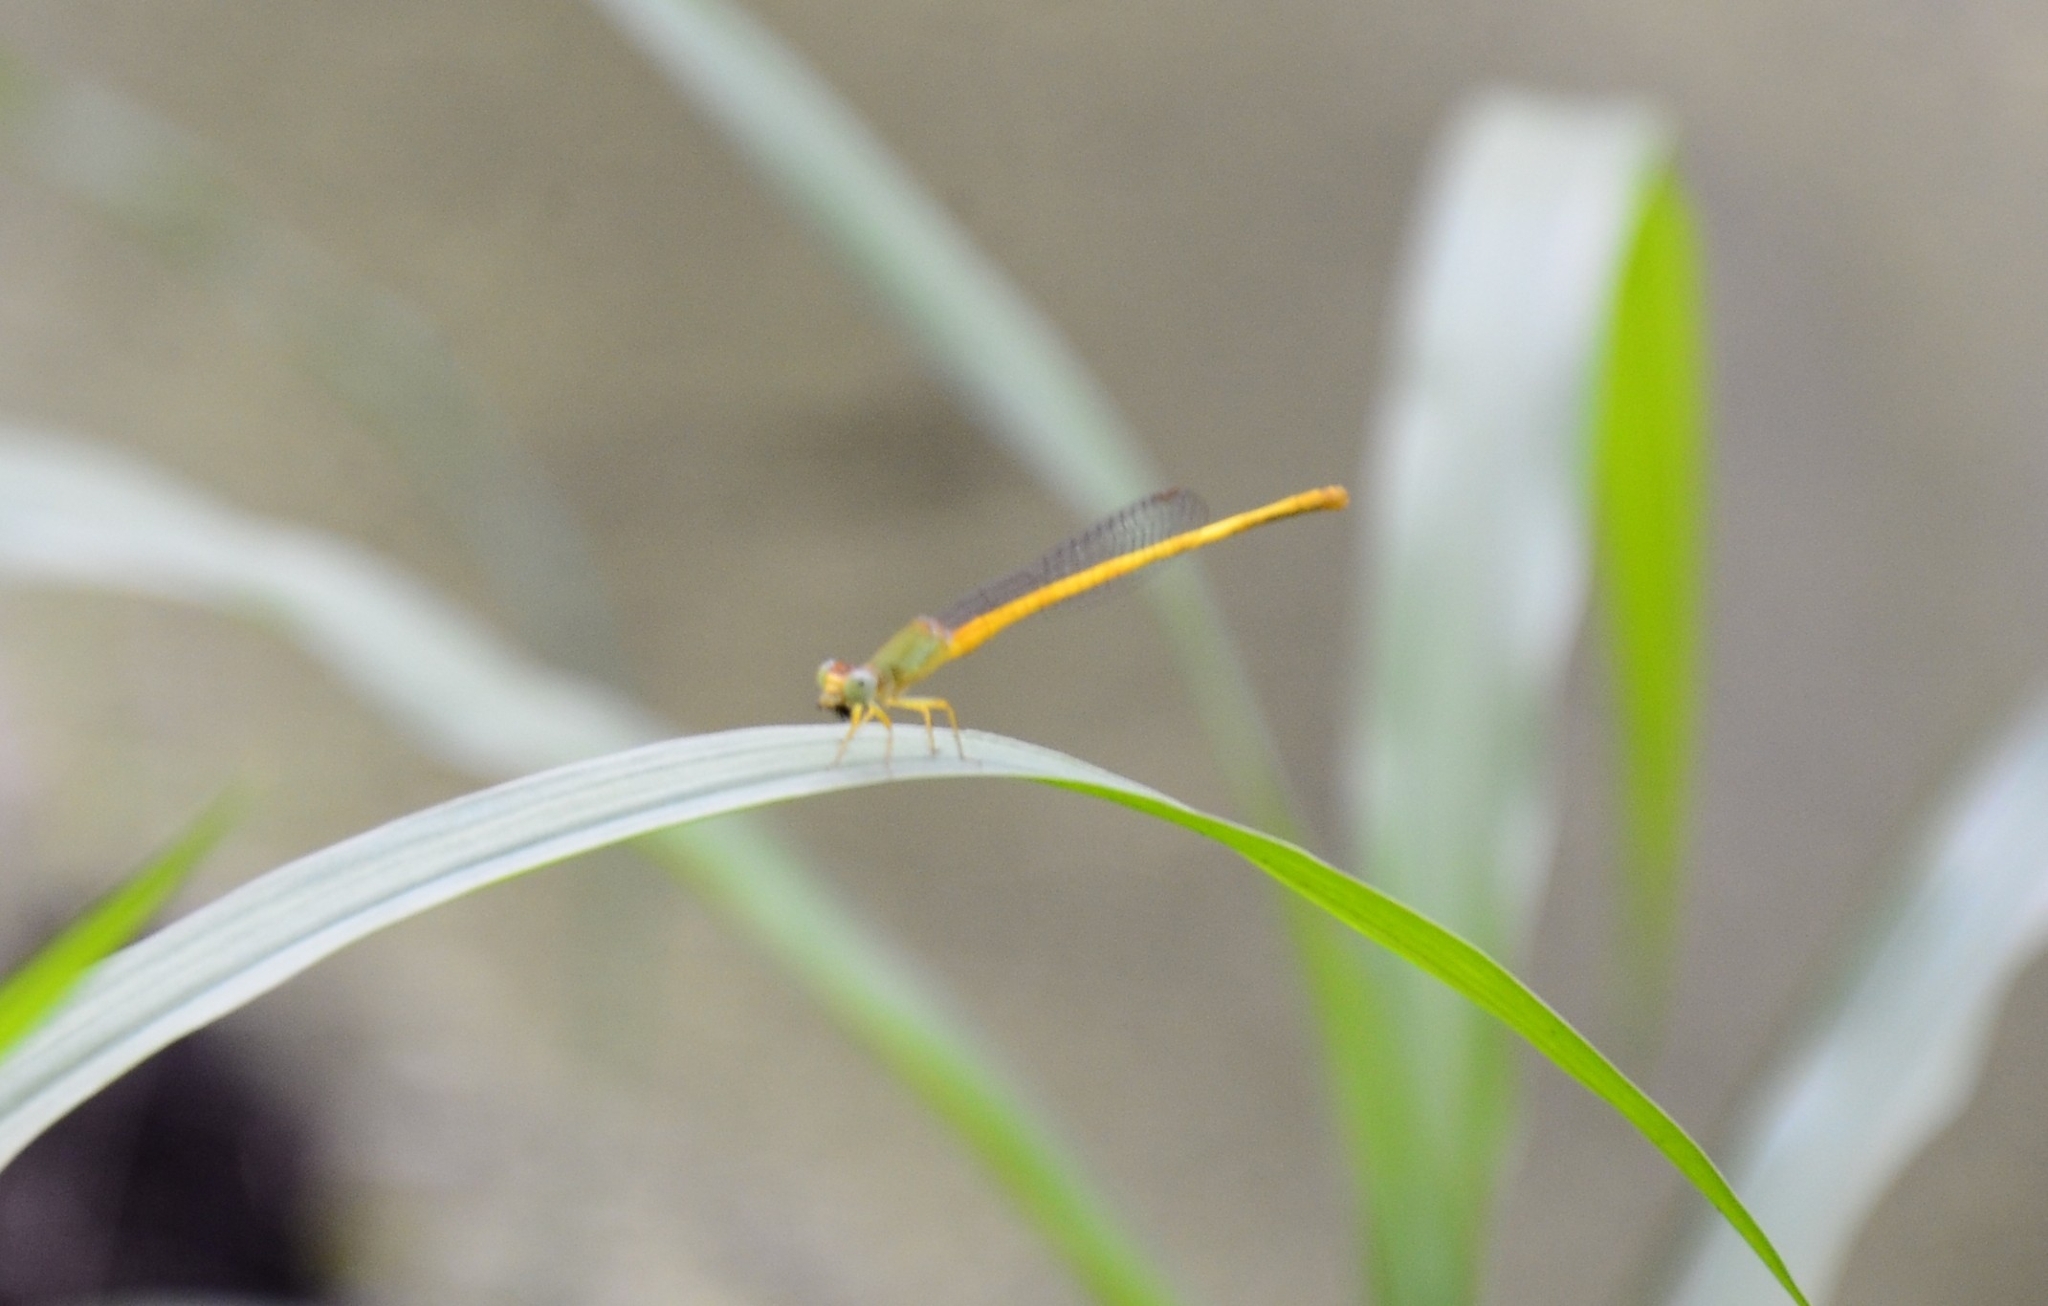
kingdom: Animalia
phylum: Arthropoda
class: Insecta
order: Odonata
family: Coenagrionidae
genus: Ceriagrion
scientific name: Ceriagrion coromandelianum
